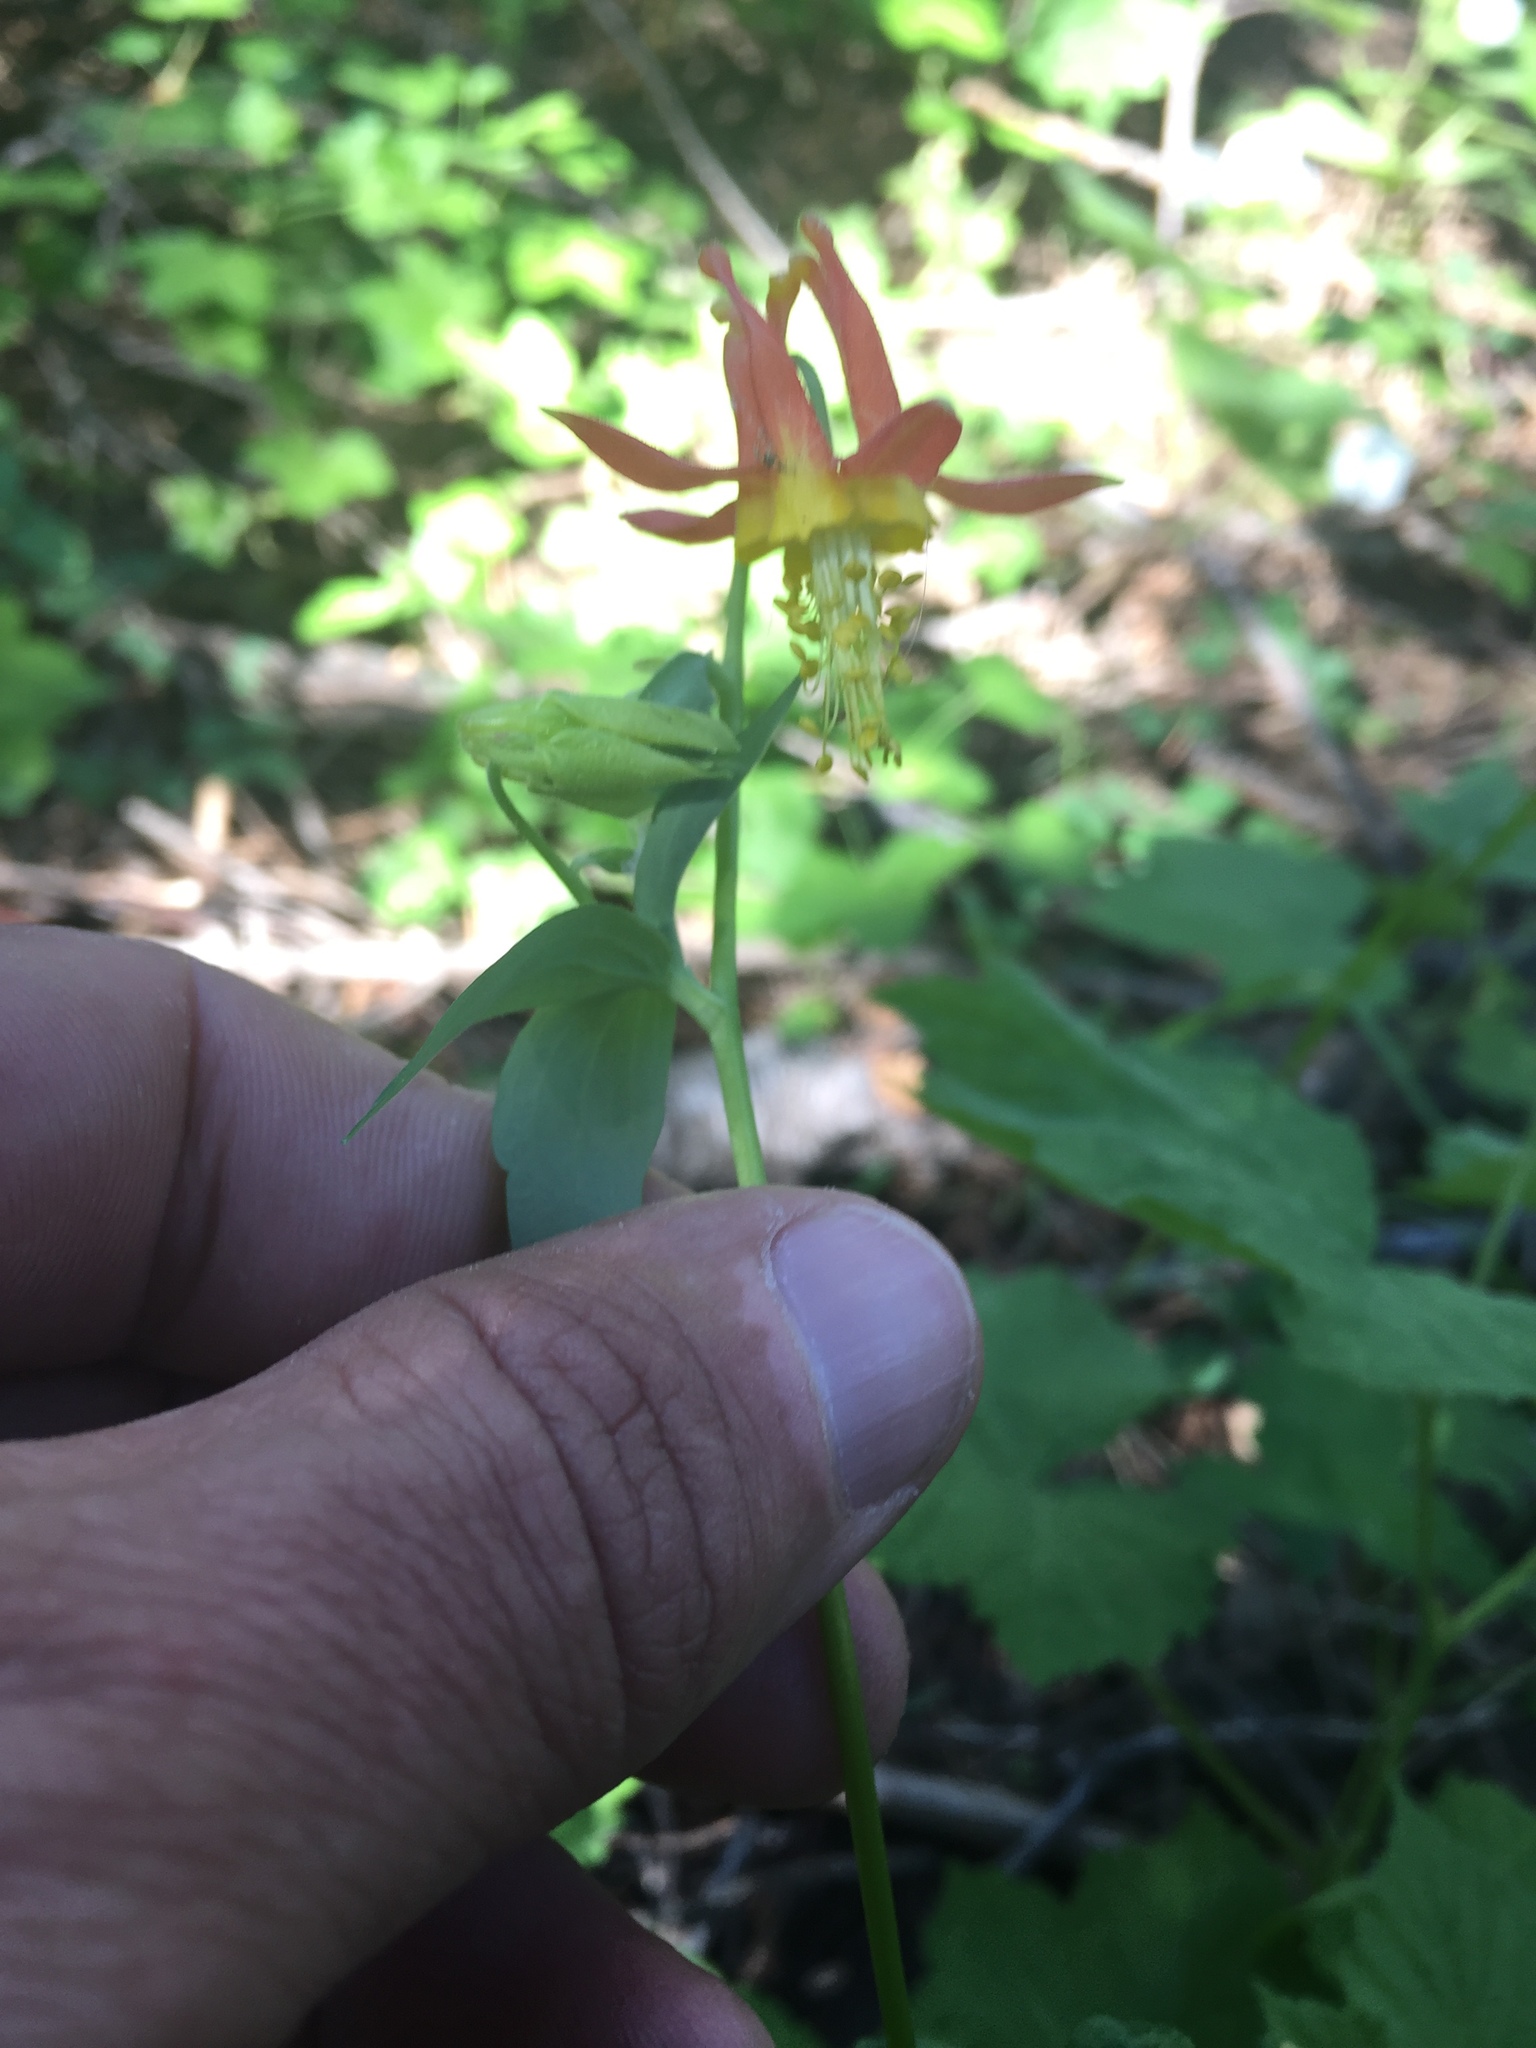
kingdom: Plantae
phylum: Tracheophyta
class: Magnoliopsida
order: Ranunculales
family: Ranunculaceae
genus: Aquilegia
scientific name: Aquilegia formosa
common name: Sitka columbine
